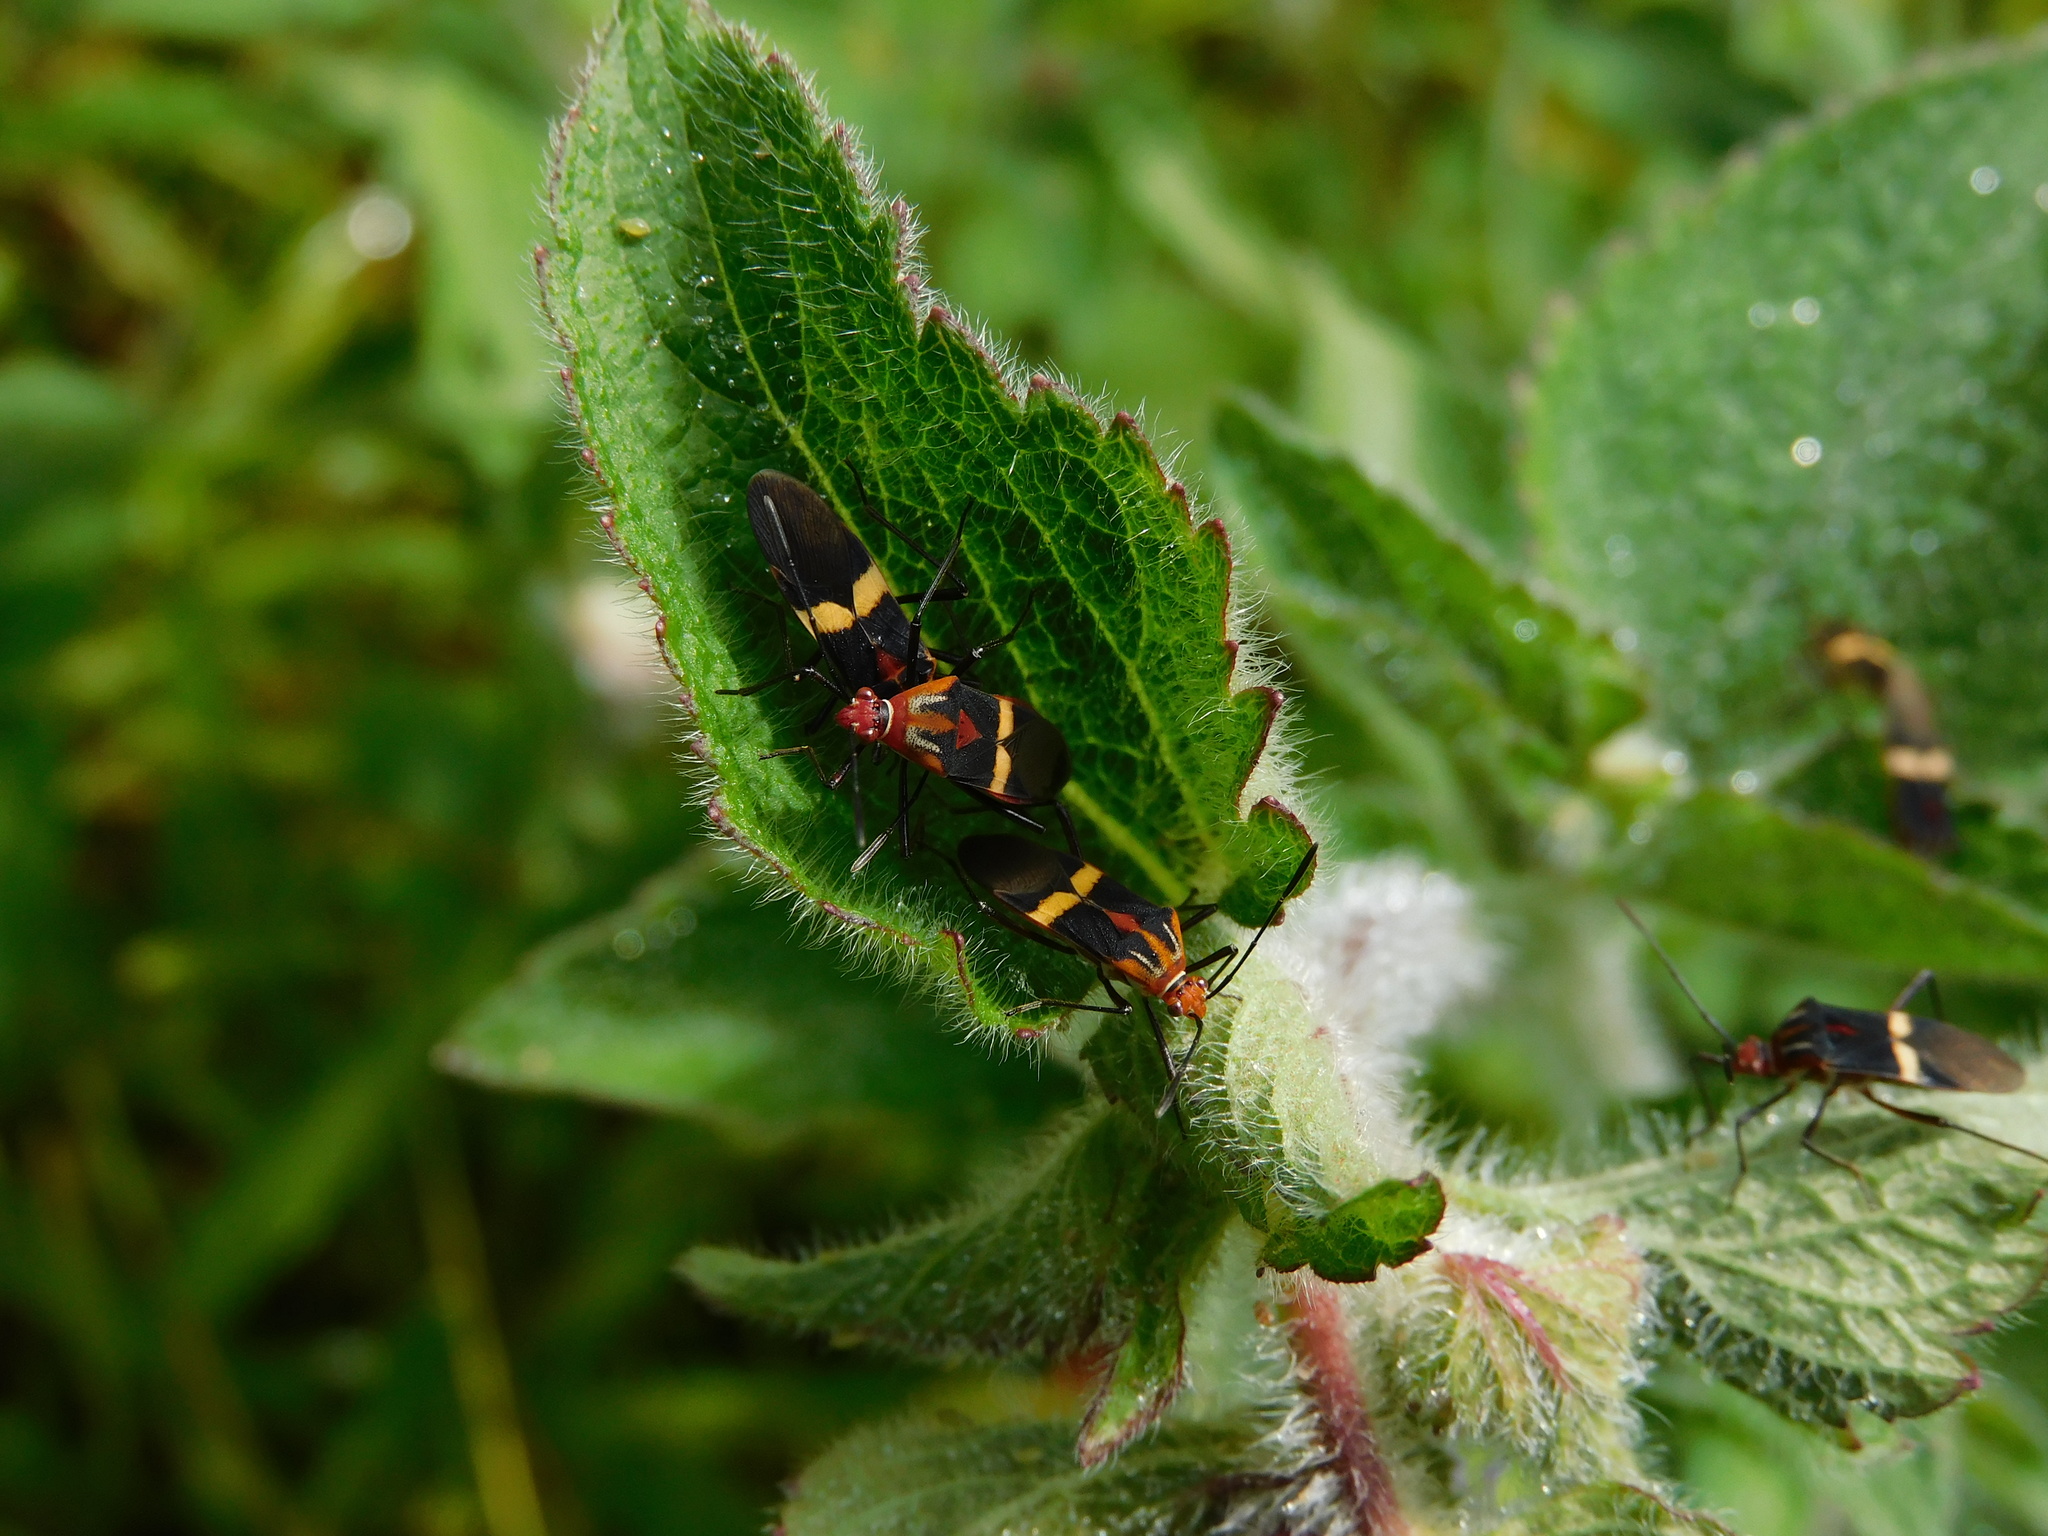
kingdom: Animalia
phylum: Arthropoda
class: Insecta
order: Hemiptera
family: Coreidae
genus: Hypselonotus
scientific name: Hypselonotus interruptus
